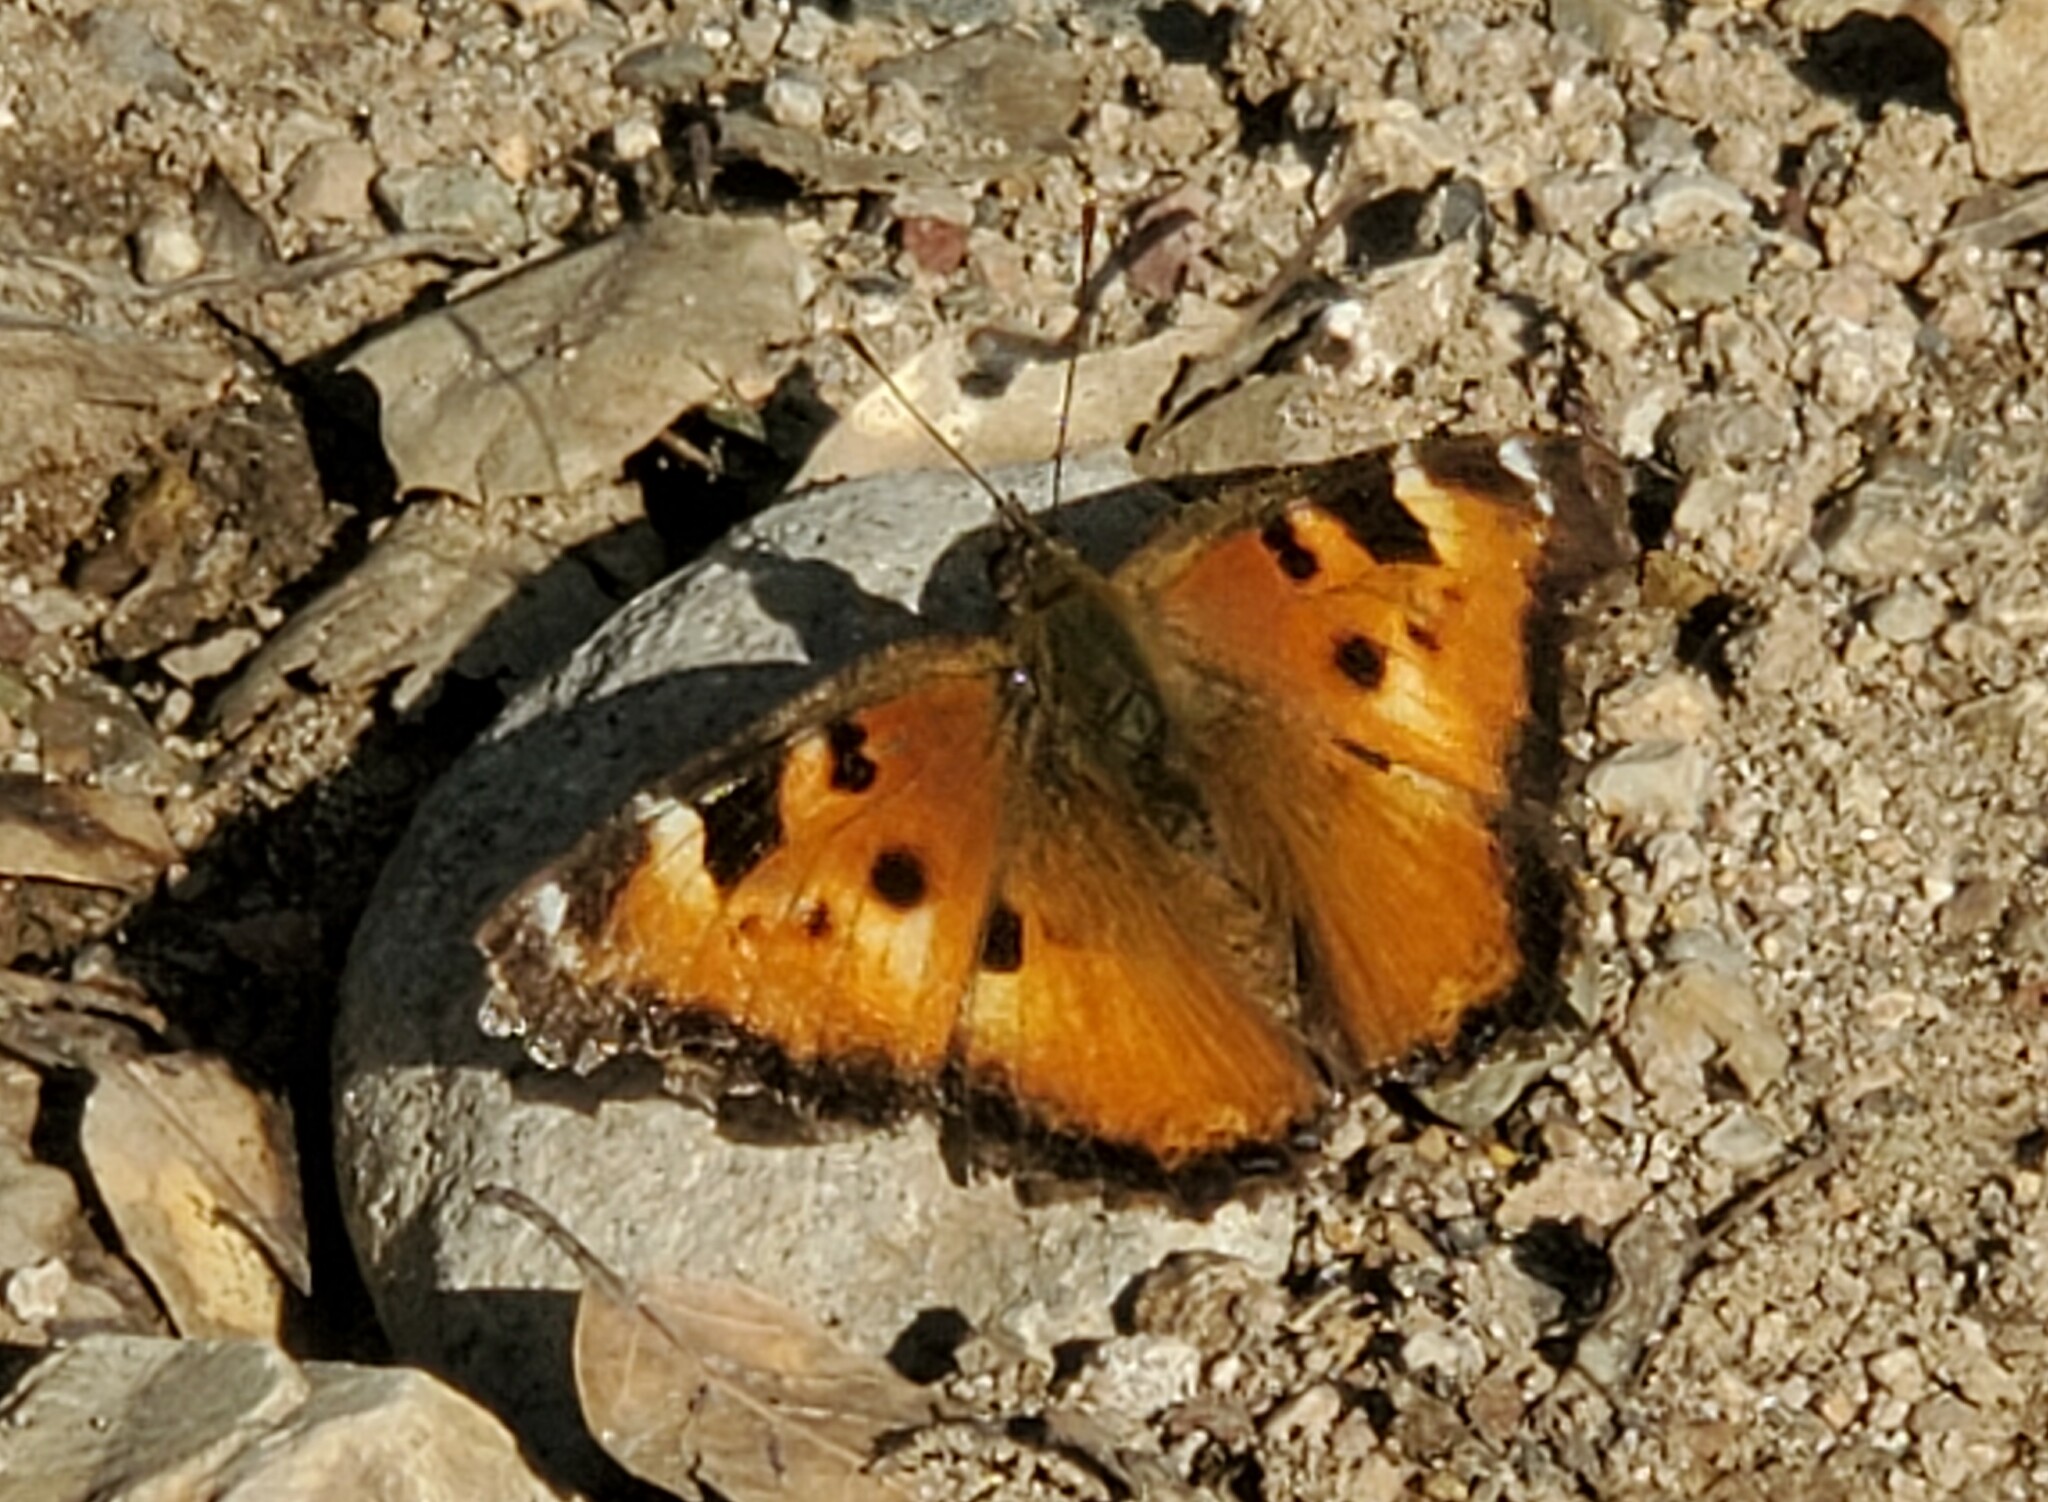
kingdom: Animalia
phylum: Arthropoda
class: Insecta
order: Lepidoptera
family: Nymphalidae
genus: Nymphalis
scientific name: Nymphalis californica
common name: California tortoiseshell
